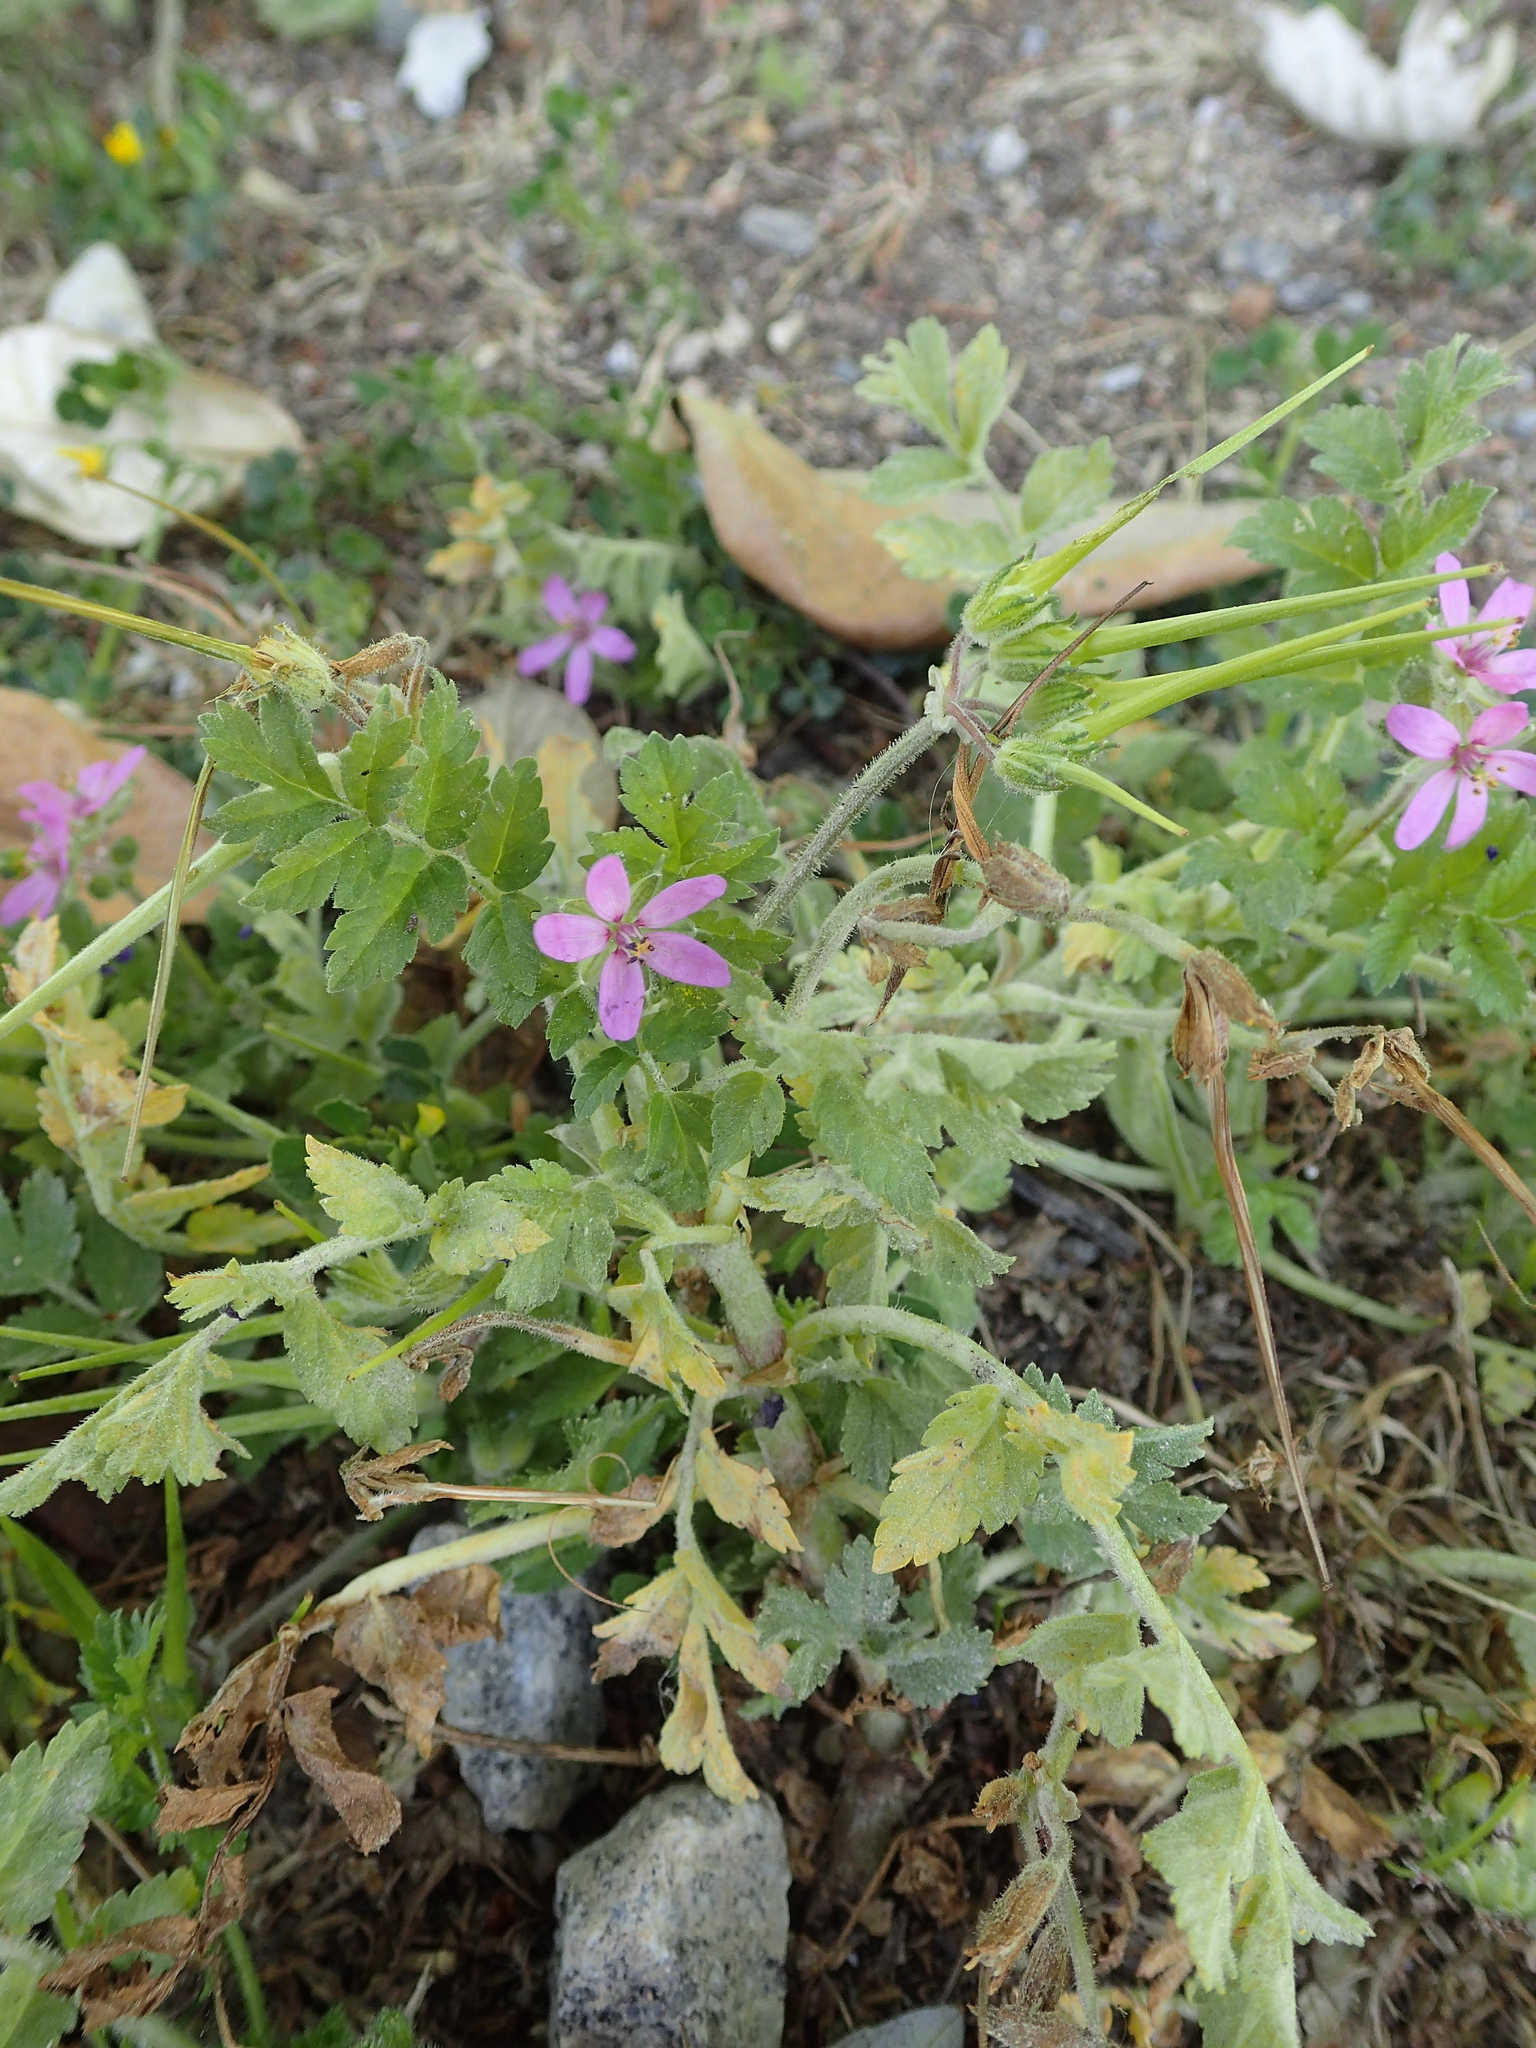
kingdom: Plantae
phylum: Tracheophyta
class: Magnoliopsida
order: Geraniales
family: Geraniaceae
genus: Erodium
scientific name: Erodium cicutarium
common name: Common stork's-bill
